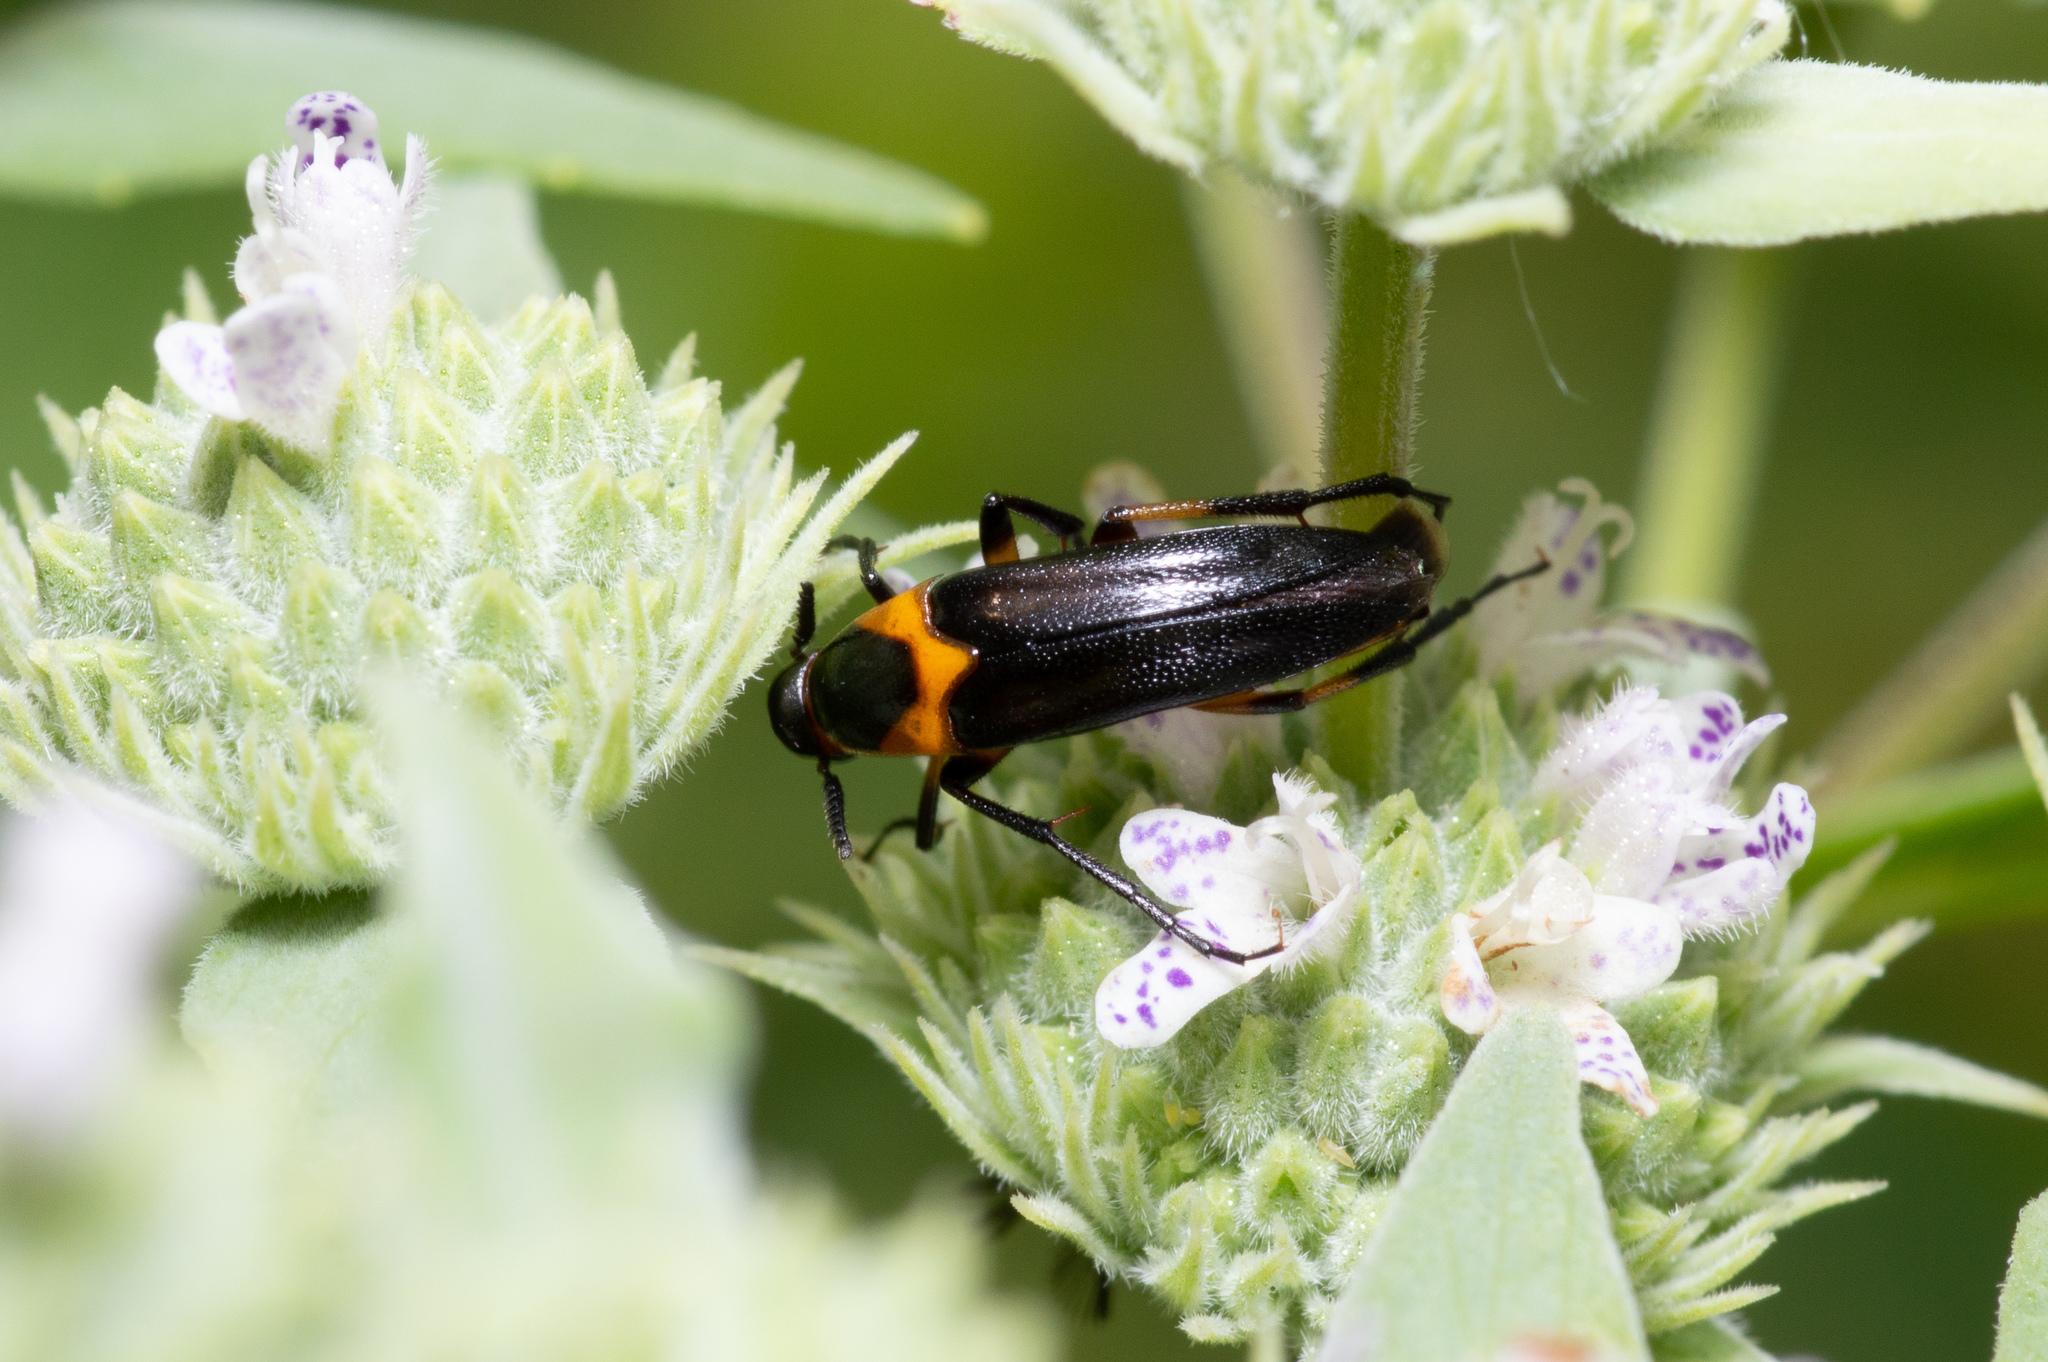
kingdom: Animalia
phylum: Arthropoda
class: Insecta
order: Coleoptera
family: Ripiphoridae
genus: Macrosiagon
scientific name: Macrosiagon limbatum
